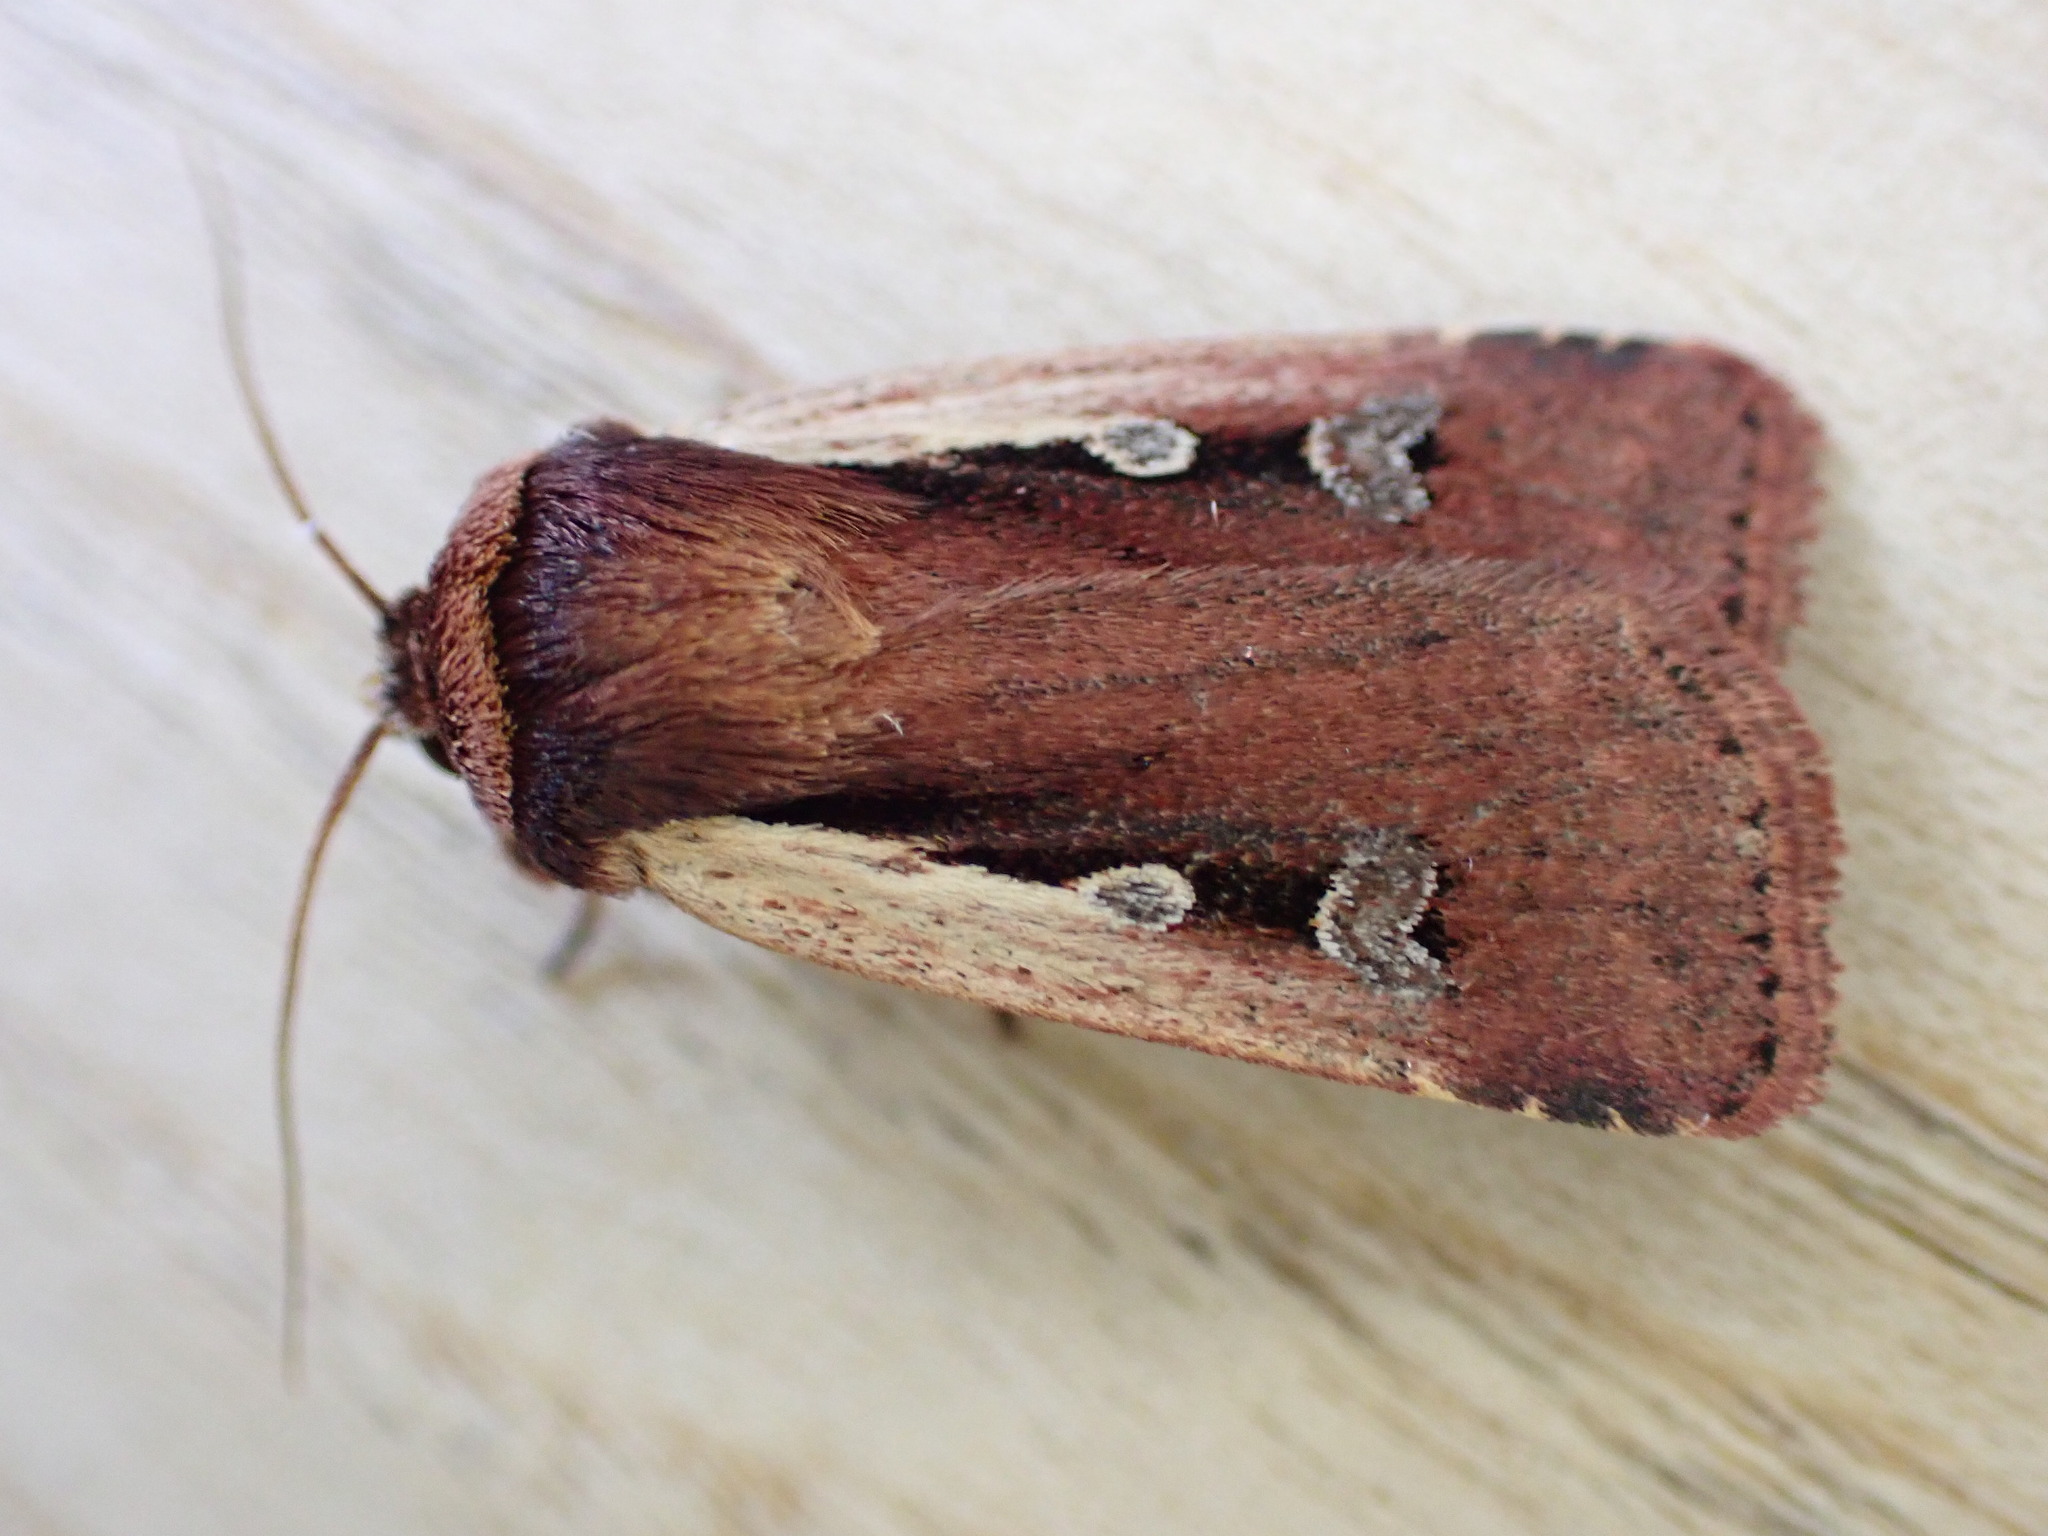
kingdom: Animalia
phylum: Arthropoda
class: Insecta
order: Lepidoptera
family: Noctuidae
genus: Ochropleura
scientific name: Ochropleura plecta
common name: Flame shoulder
